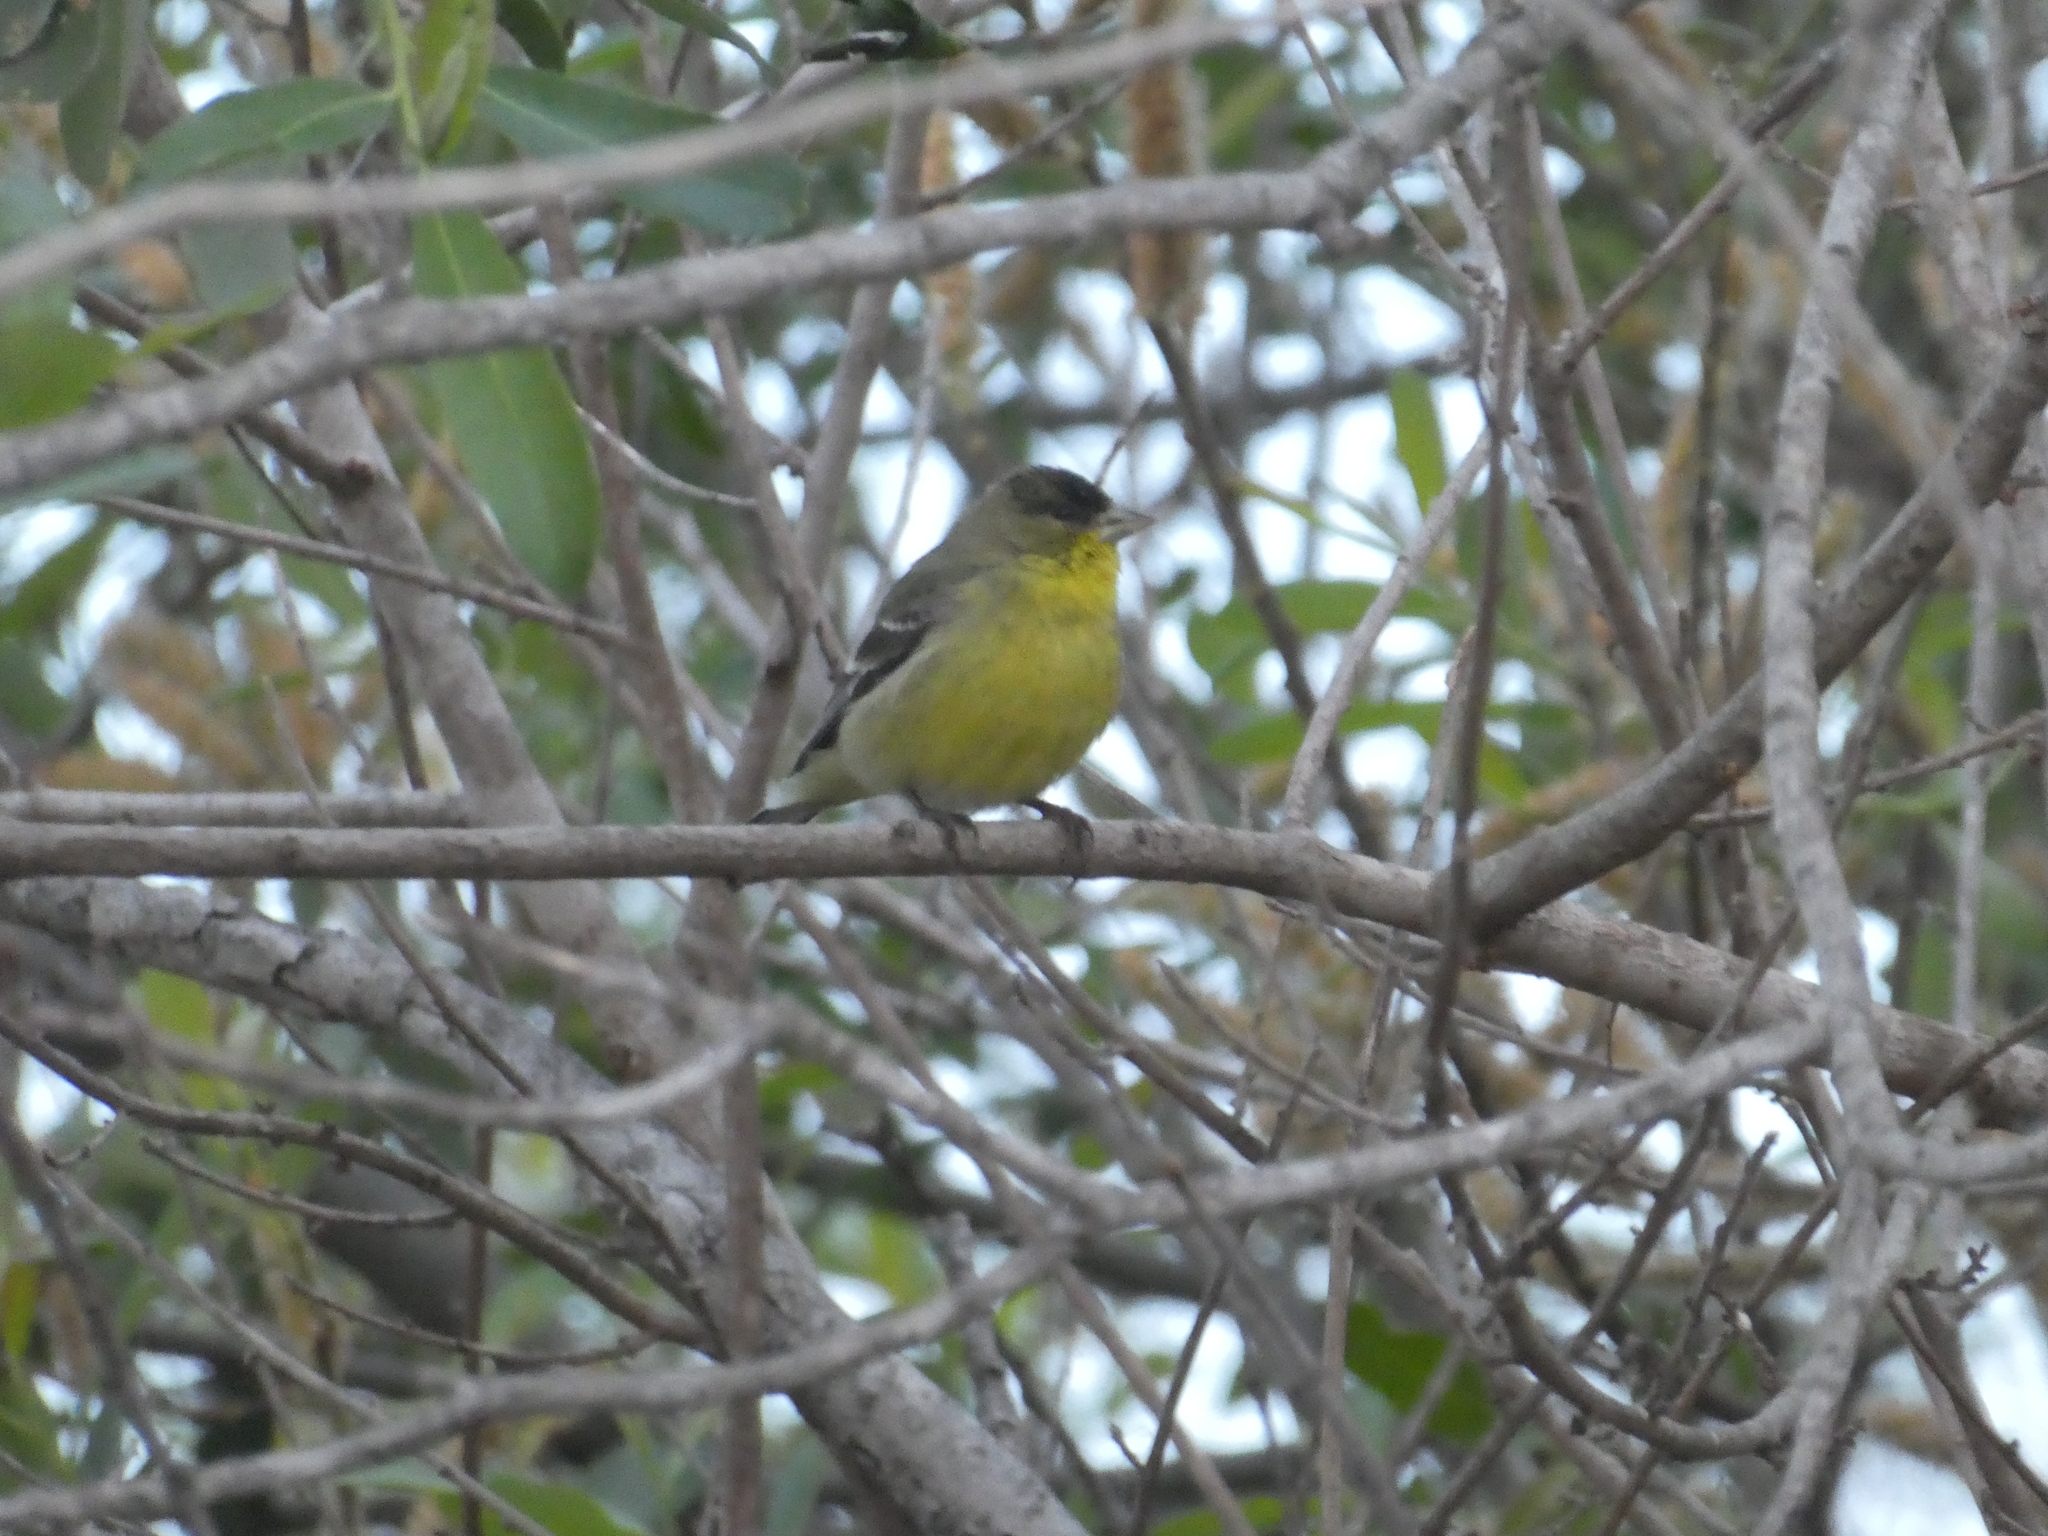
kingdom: Animalia
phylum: Chordata
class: Aves
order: Passeriformes
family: Fringillidae
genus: Spinus
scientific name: Spinus psaltria
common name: Lesser goldfinch
